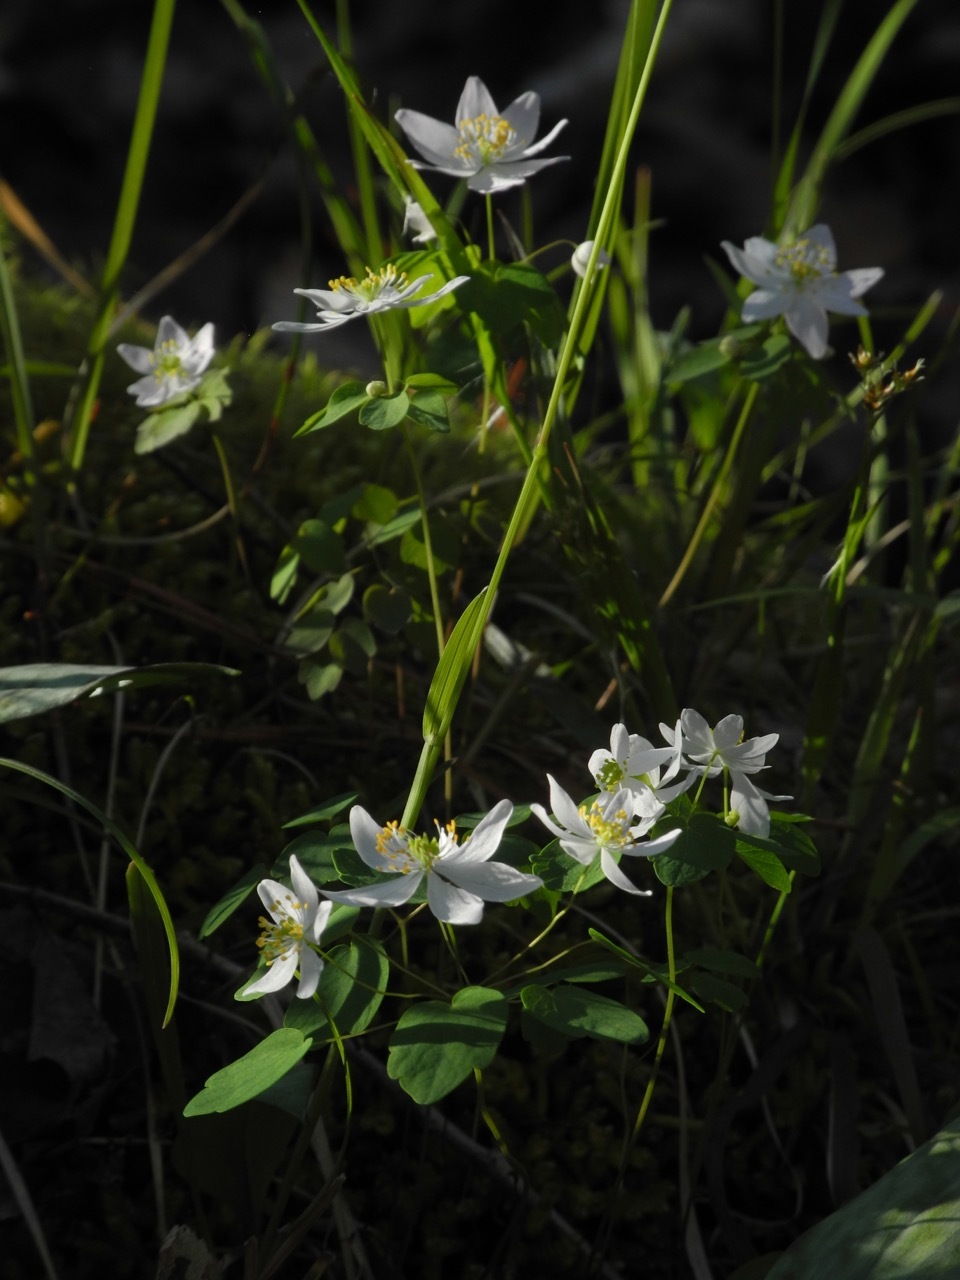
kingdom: Plantae
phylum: Tracheophyta
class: Magnoliopsida
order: Ranunculales
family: Ranunculaceae
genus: Thalictrum
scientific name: Thalictrum thalictroides
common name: Rue-anemone
